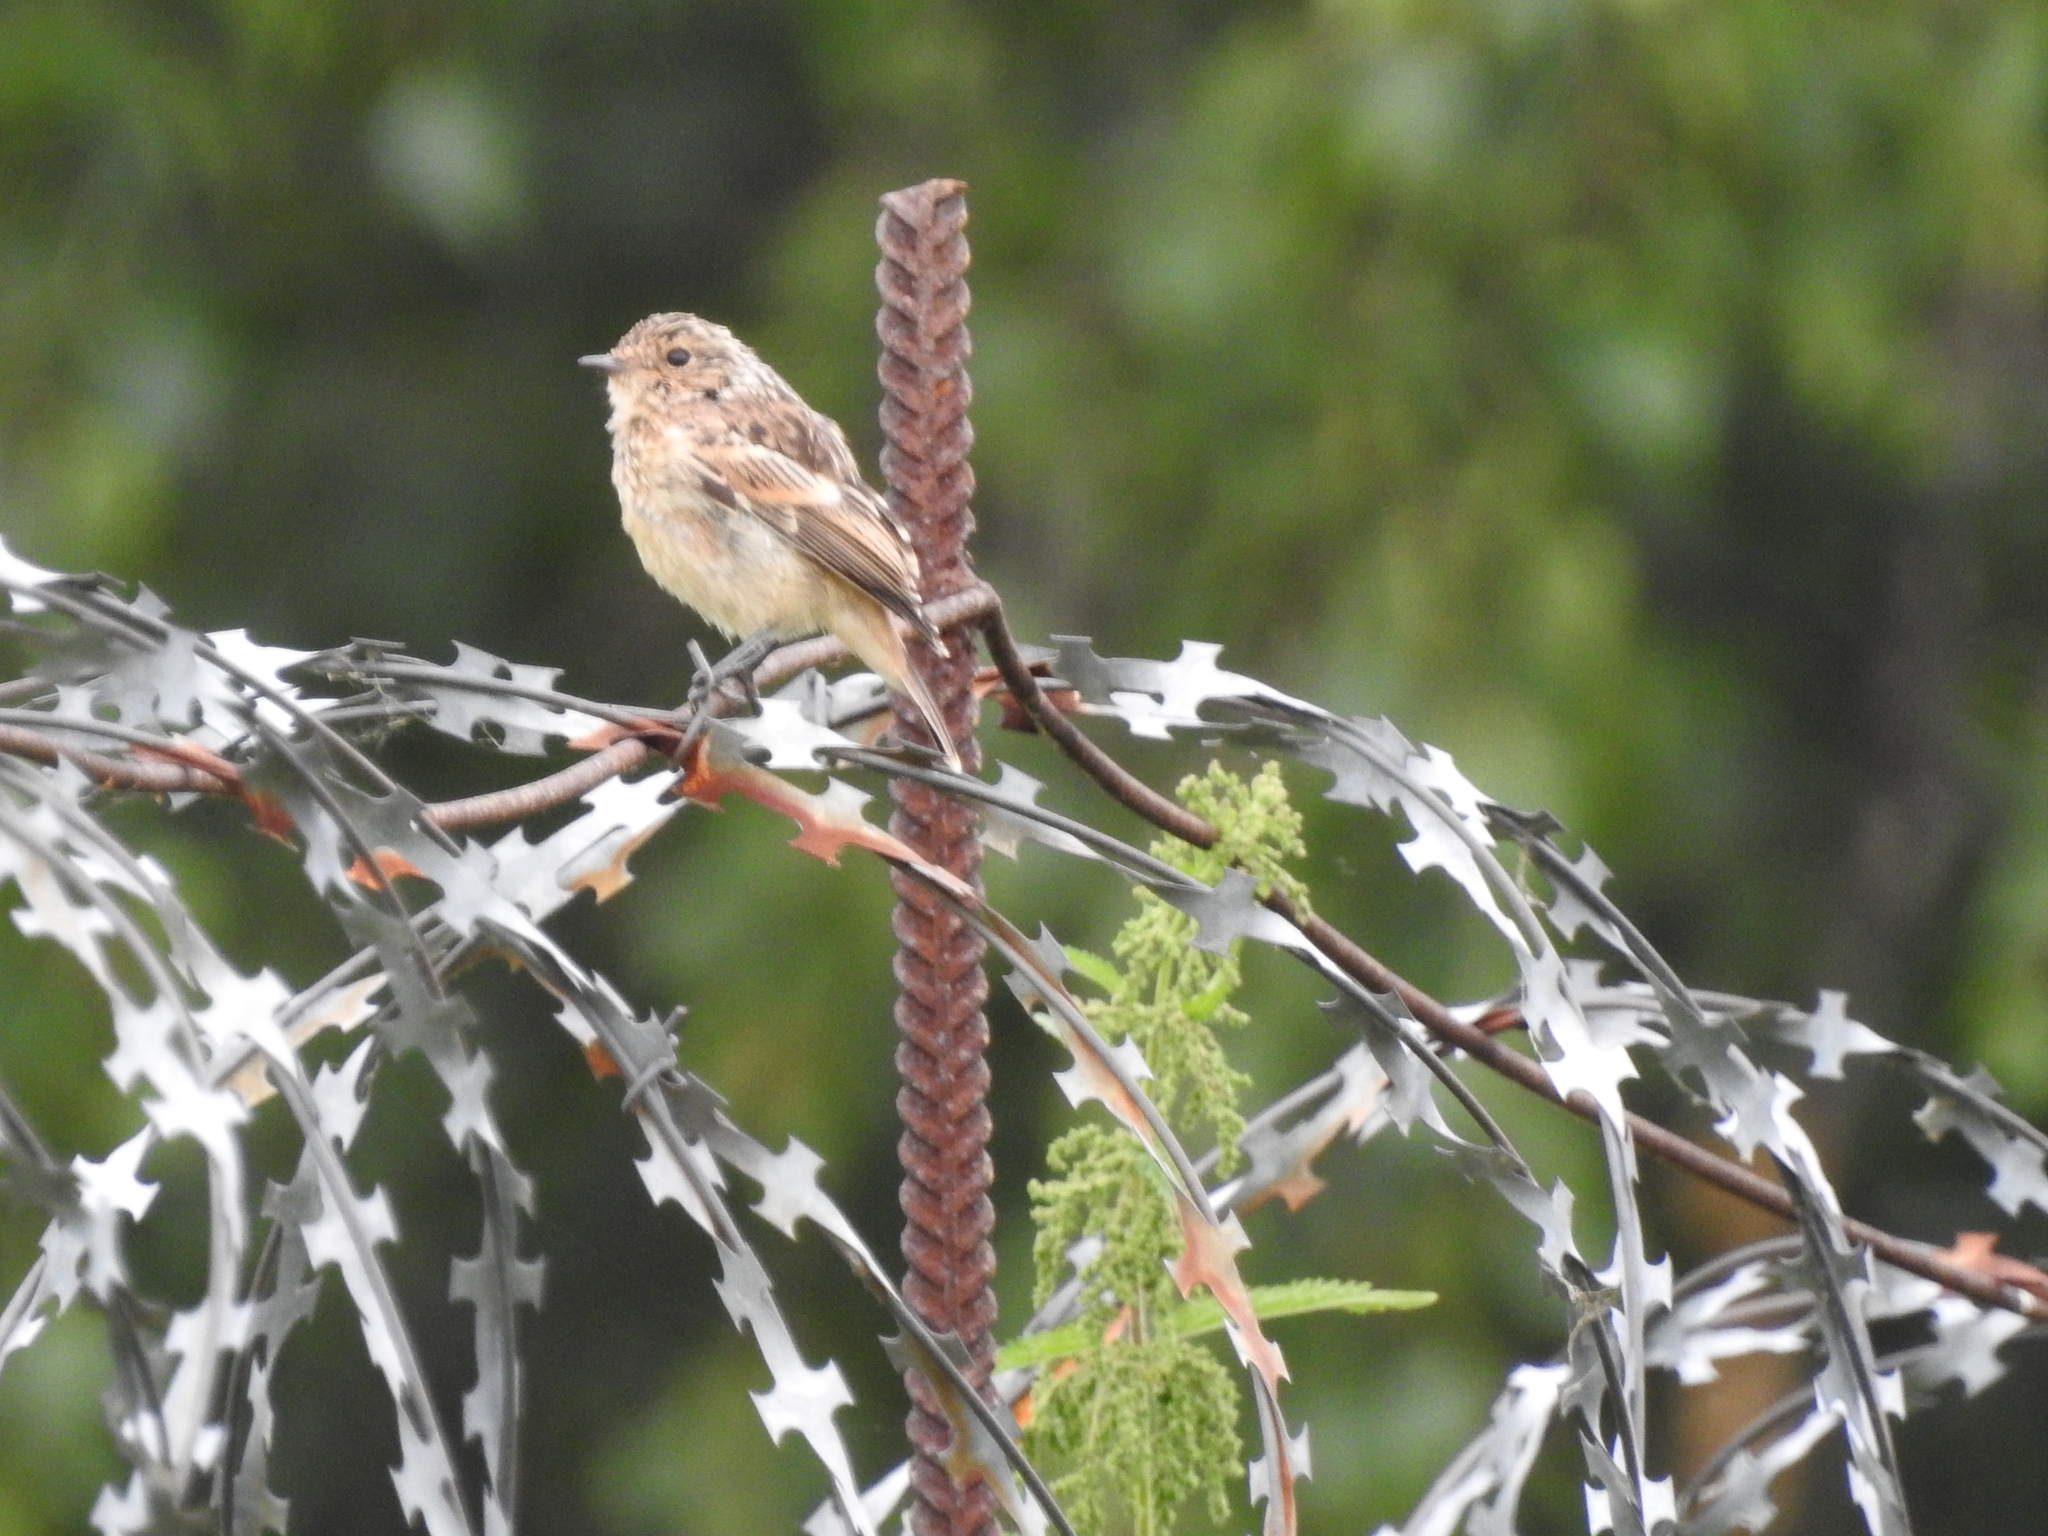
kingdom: Animalia
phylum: Chordata
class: Aves
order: Passeriformes
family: Muscicapidae
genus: Saxicola
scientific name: Saxicola maurus
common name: Siberian stonechat
